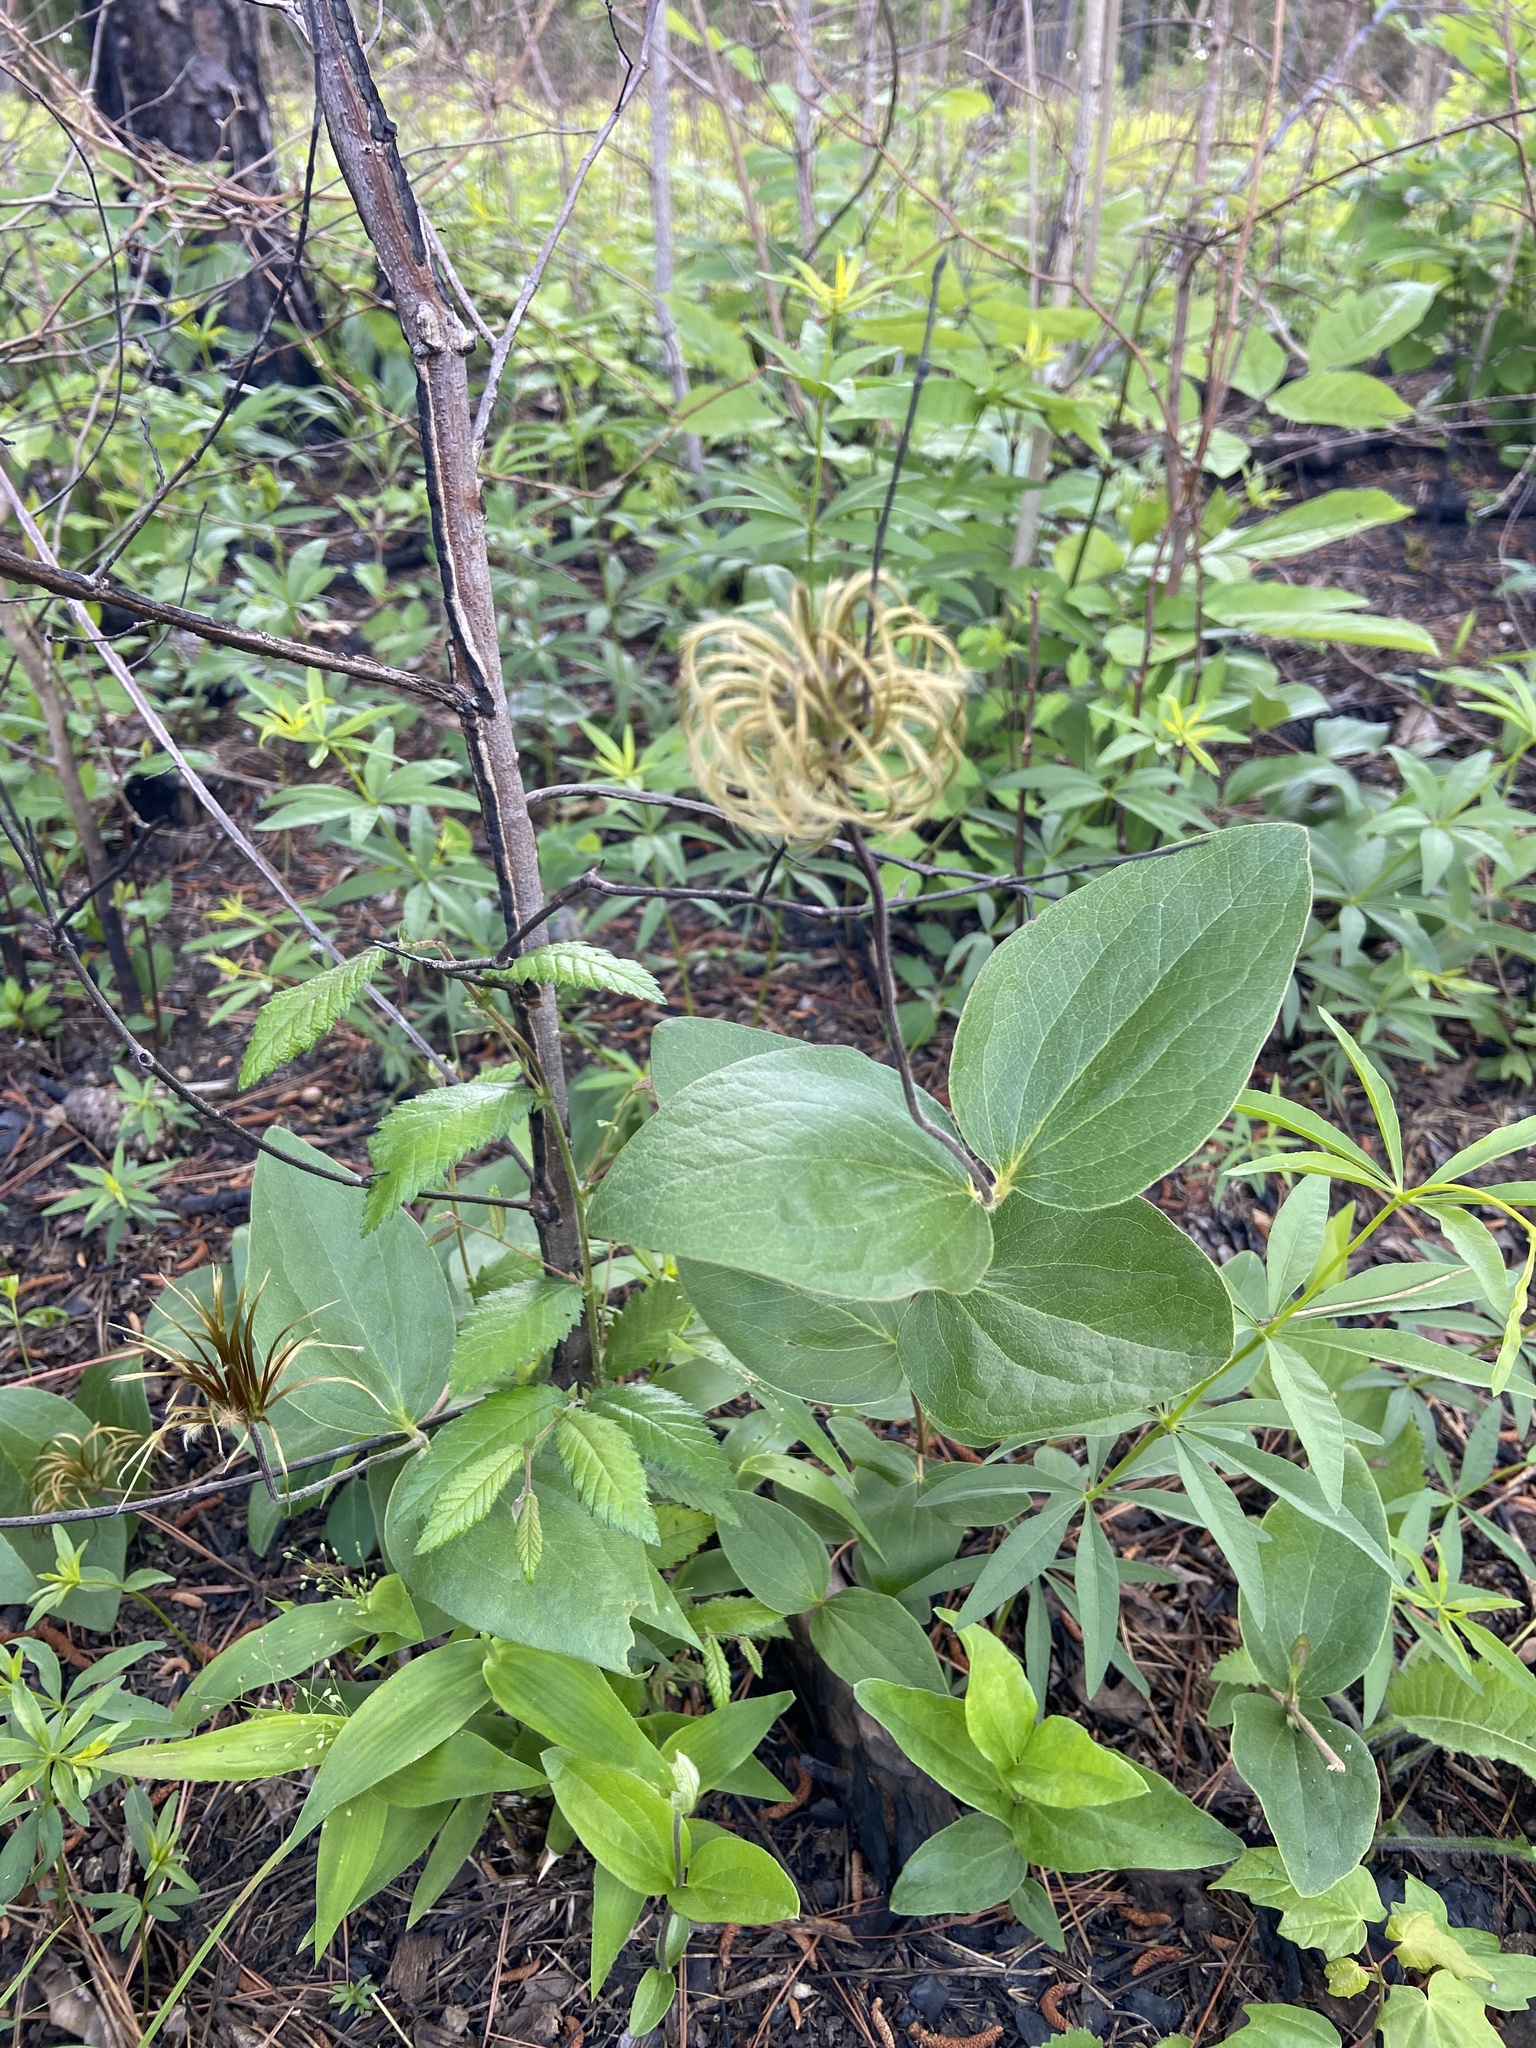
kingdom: Plantae
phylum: Tracheophyta
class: Magnoliopsida
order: Ranunculales
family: Ranunculaceae
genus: Clematis
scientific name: Clematis ochroleuca
